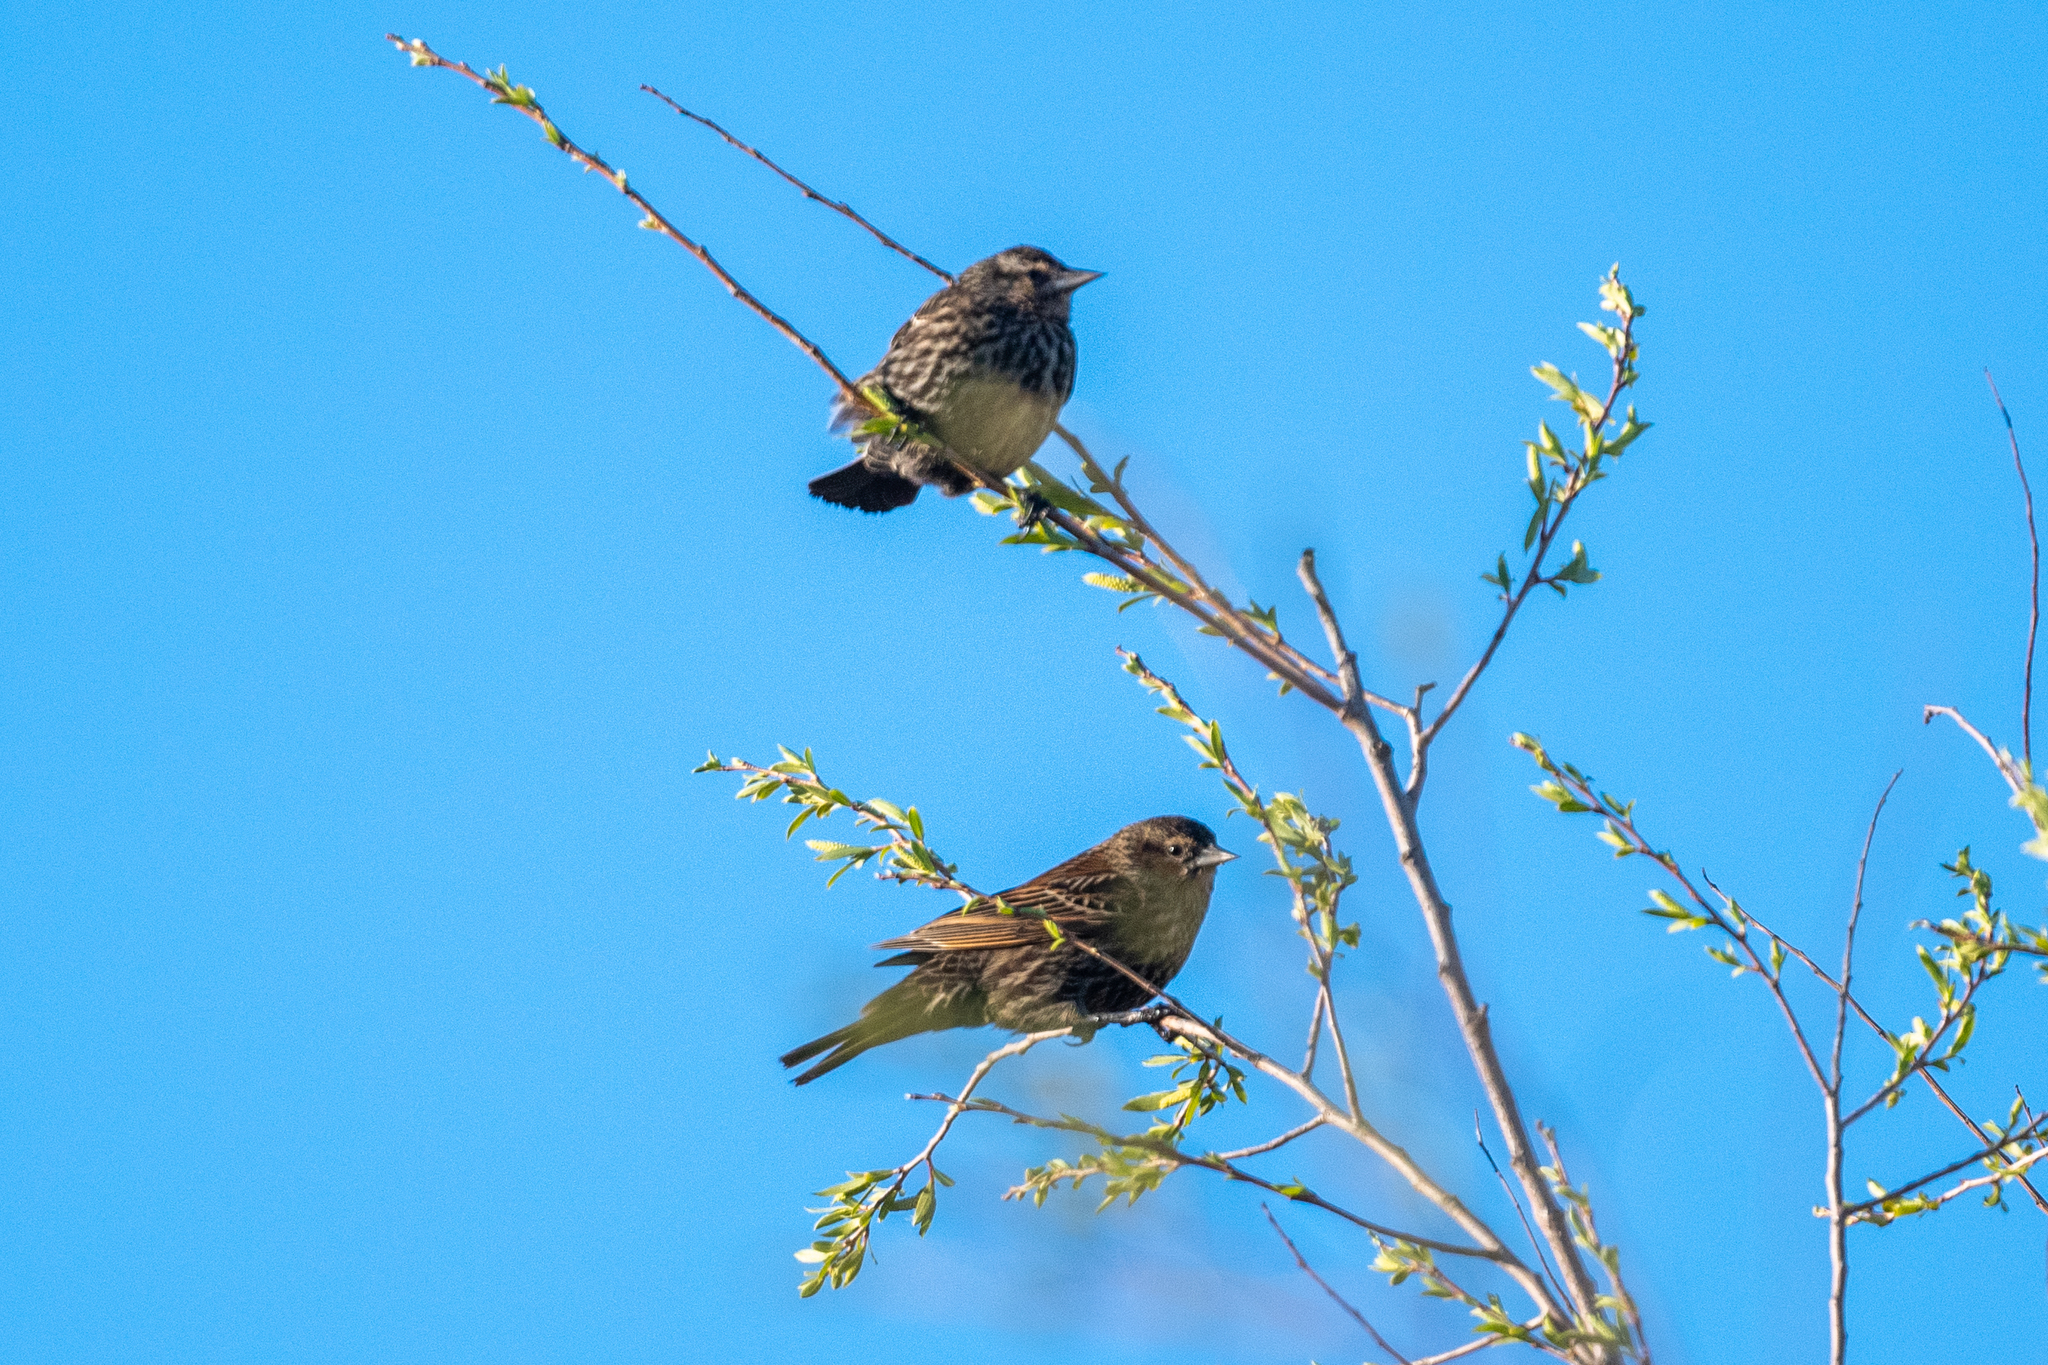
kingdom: Animalia
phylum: Chordata
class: Aves
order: Passeriformes
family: Icteridae
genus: Agelaius
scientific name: Agelaius phoeniceus
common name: Red-winged blackbird
